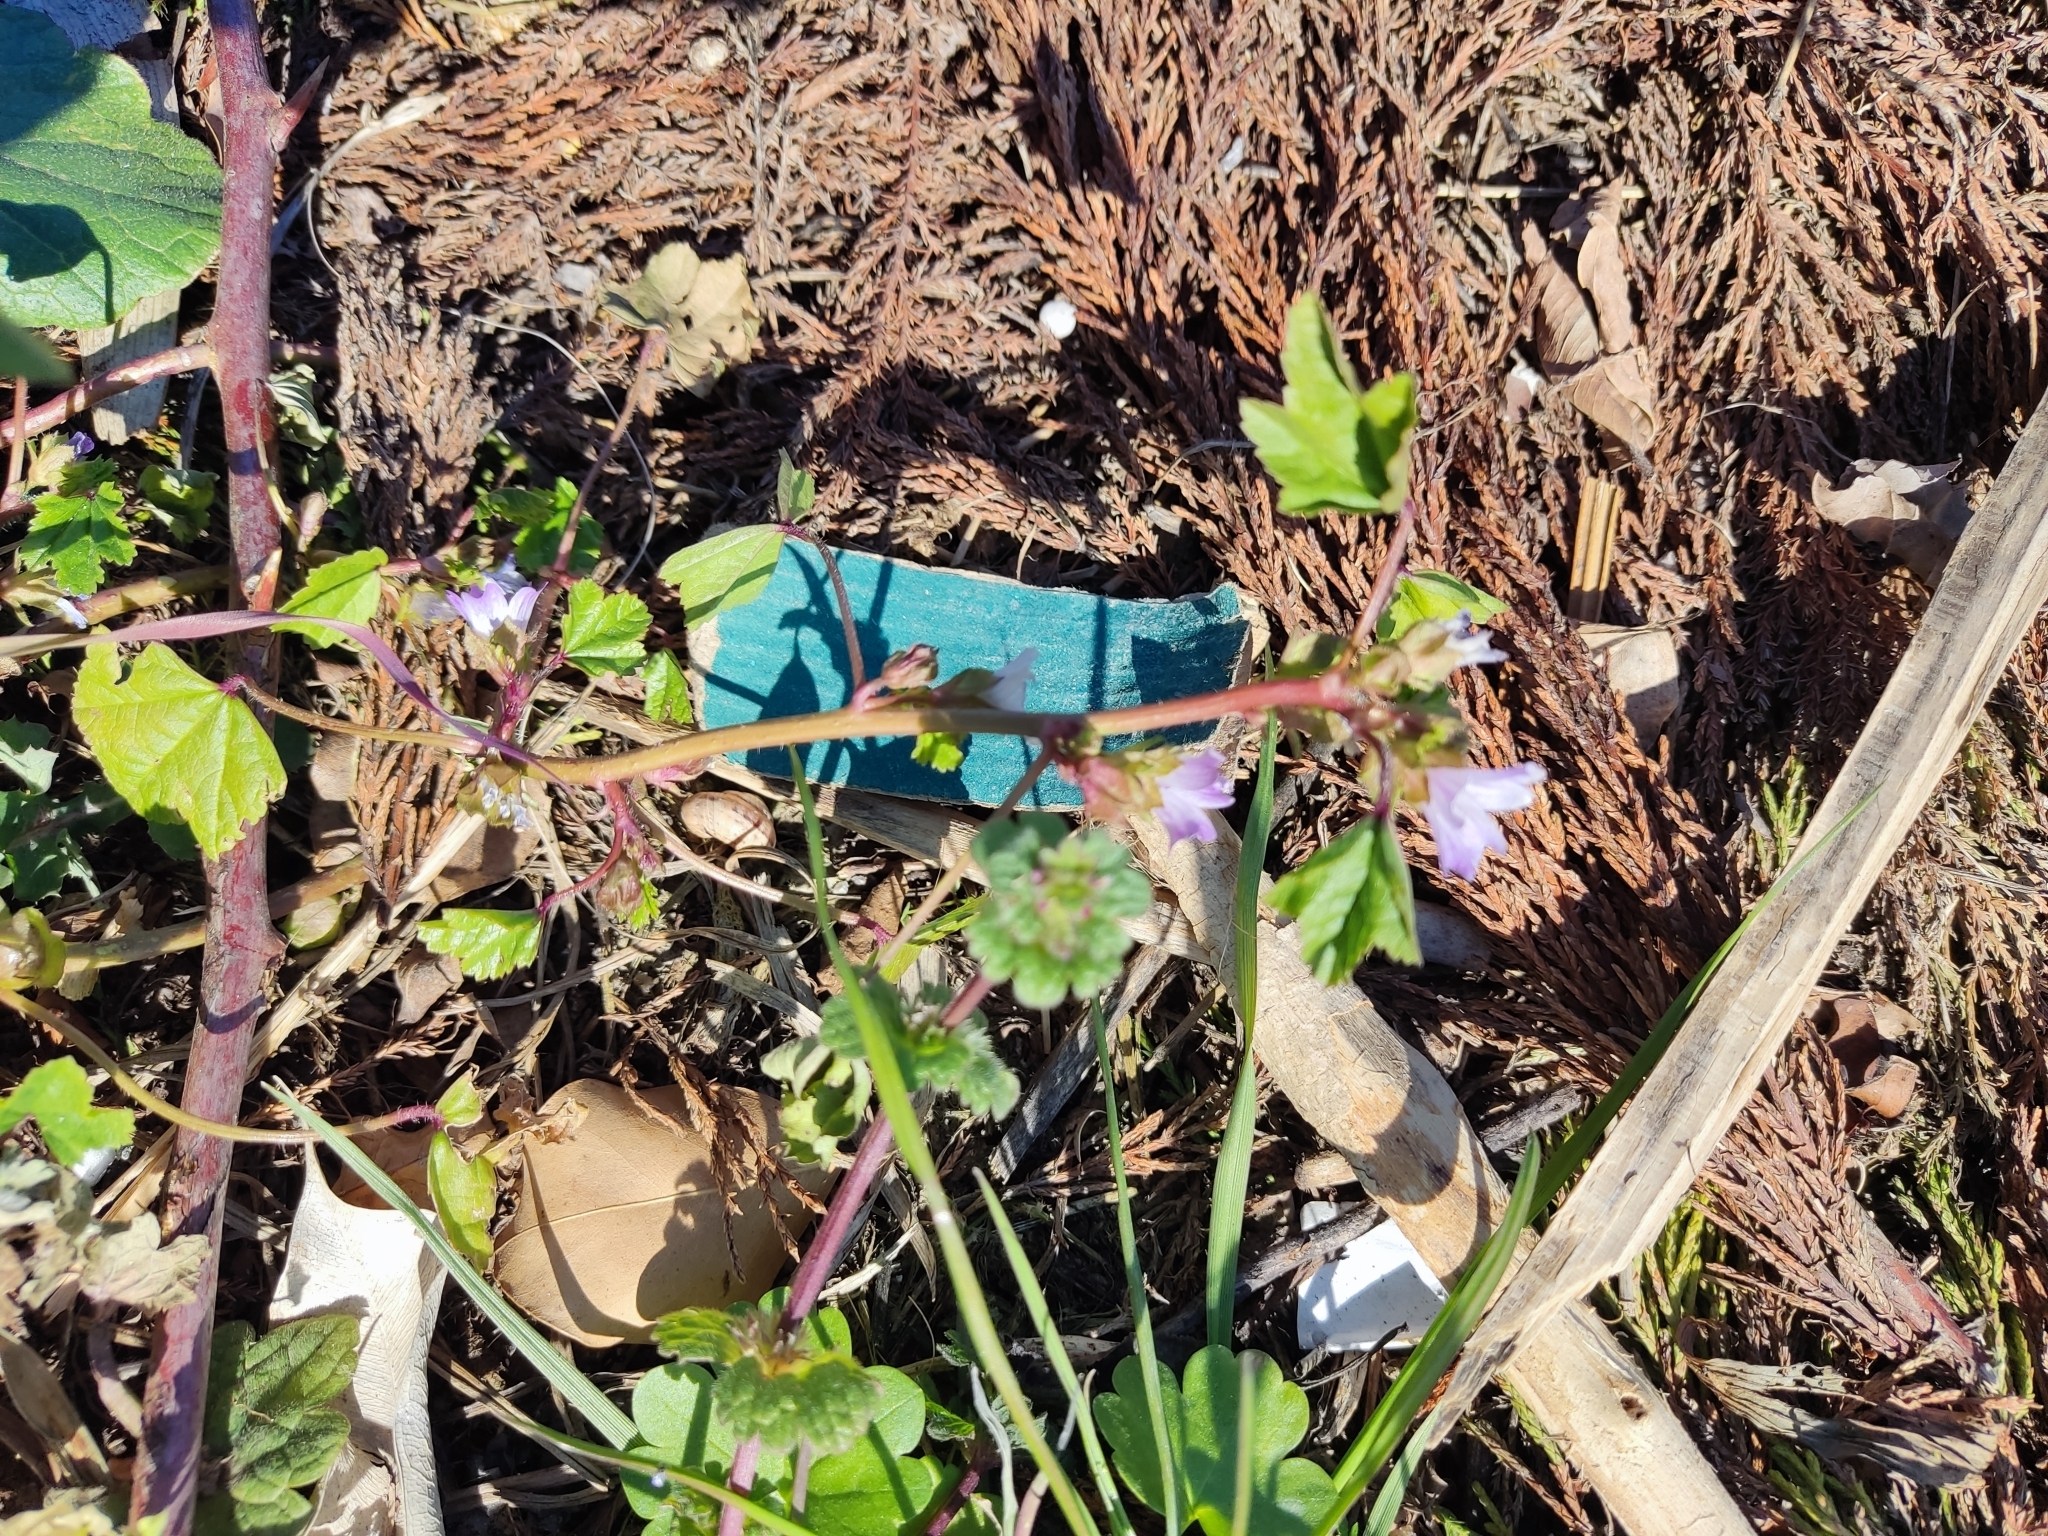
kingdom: Plantae
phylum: Tracheophyta
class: Magnoliopsida
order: Malvales
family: Malvaceae
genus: Malva
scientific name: Malva nicaeensis
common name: French mallow
